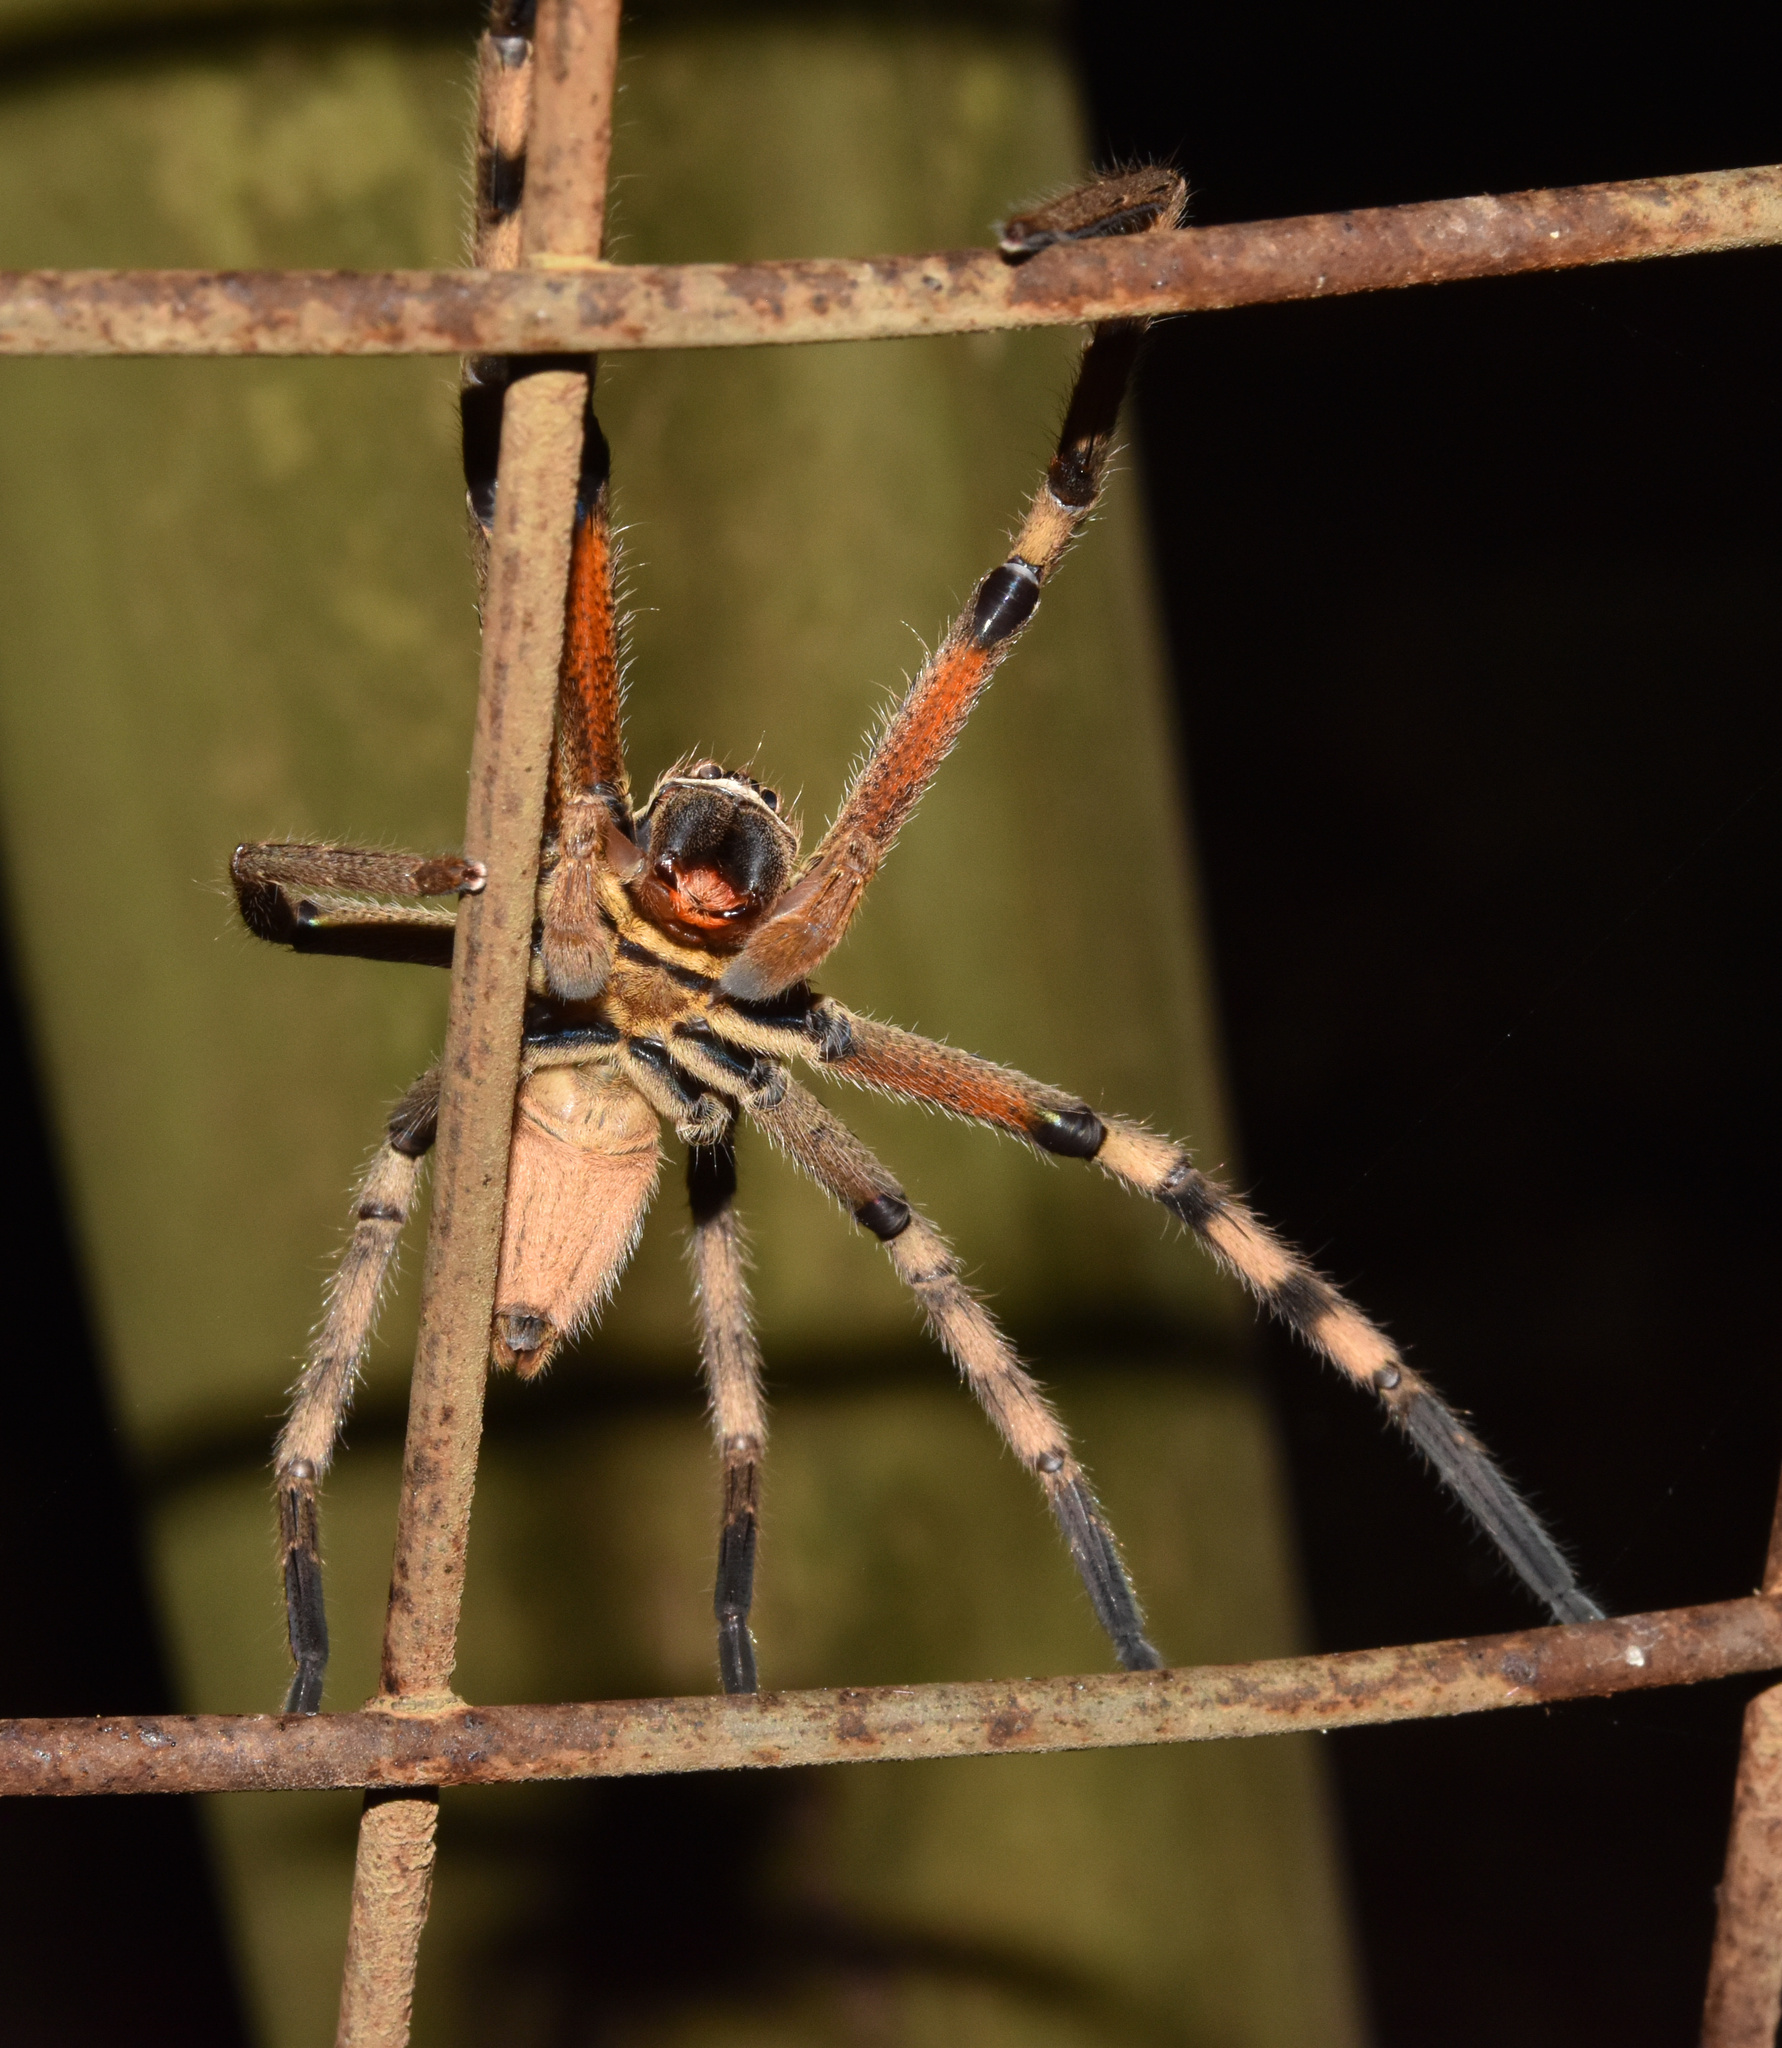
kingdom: Animalia
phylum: Arthropoda
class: Arachnida
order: Araneae
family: Sparassidae
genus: Palystes
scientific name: Palystes superciliosus
